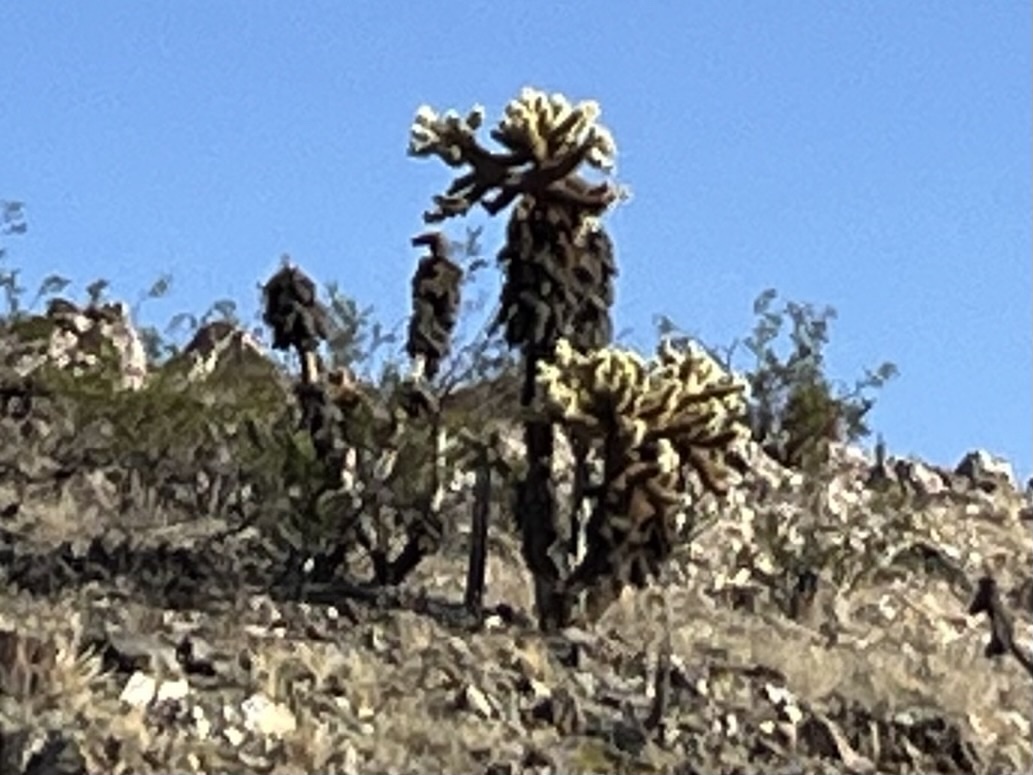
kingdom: Plantae
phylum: Tracheophyta
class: Magnoliopsida
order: Caryophyllales
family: Cactaceae
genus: Cylindropuntia
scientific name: Cylindropuntia fosbergii
